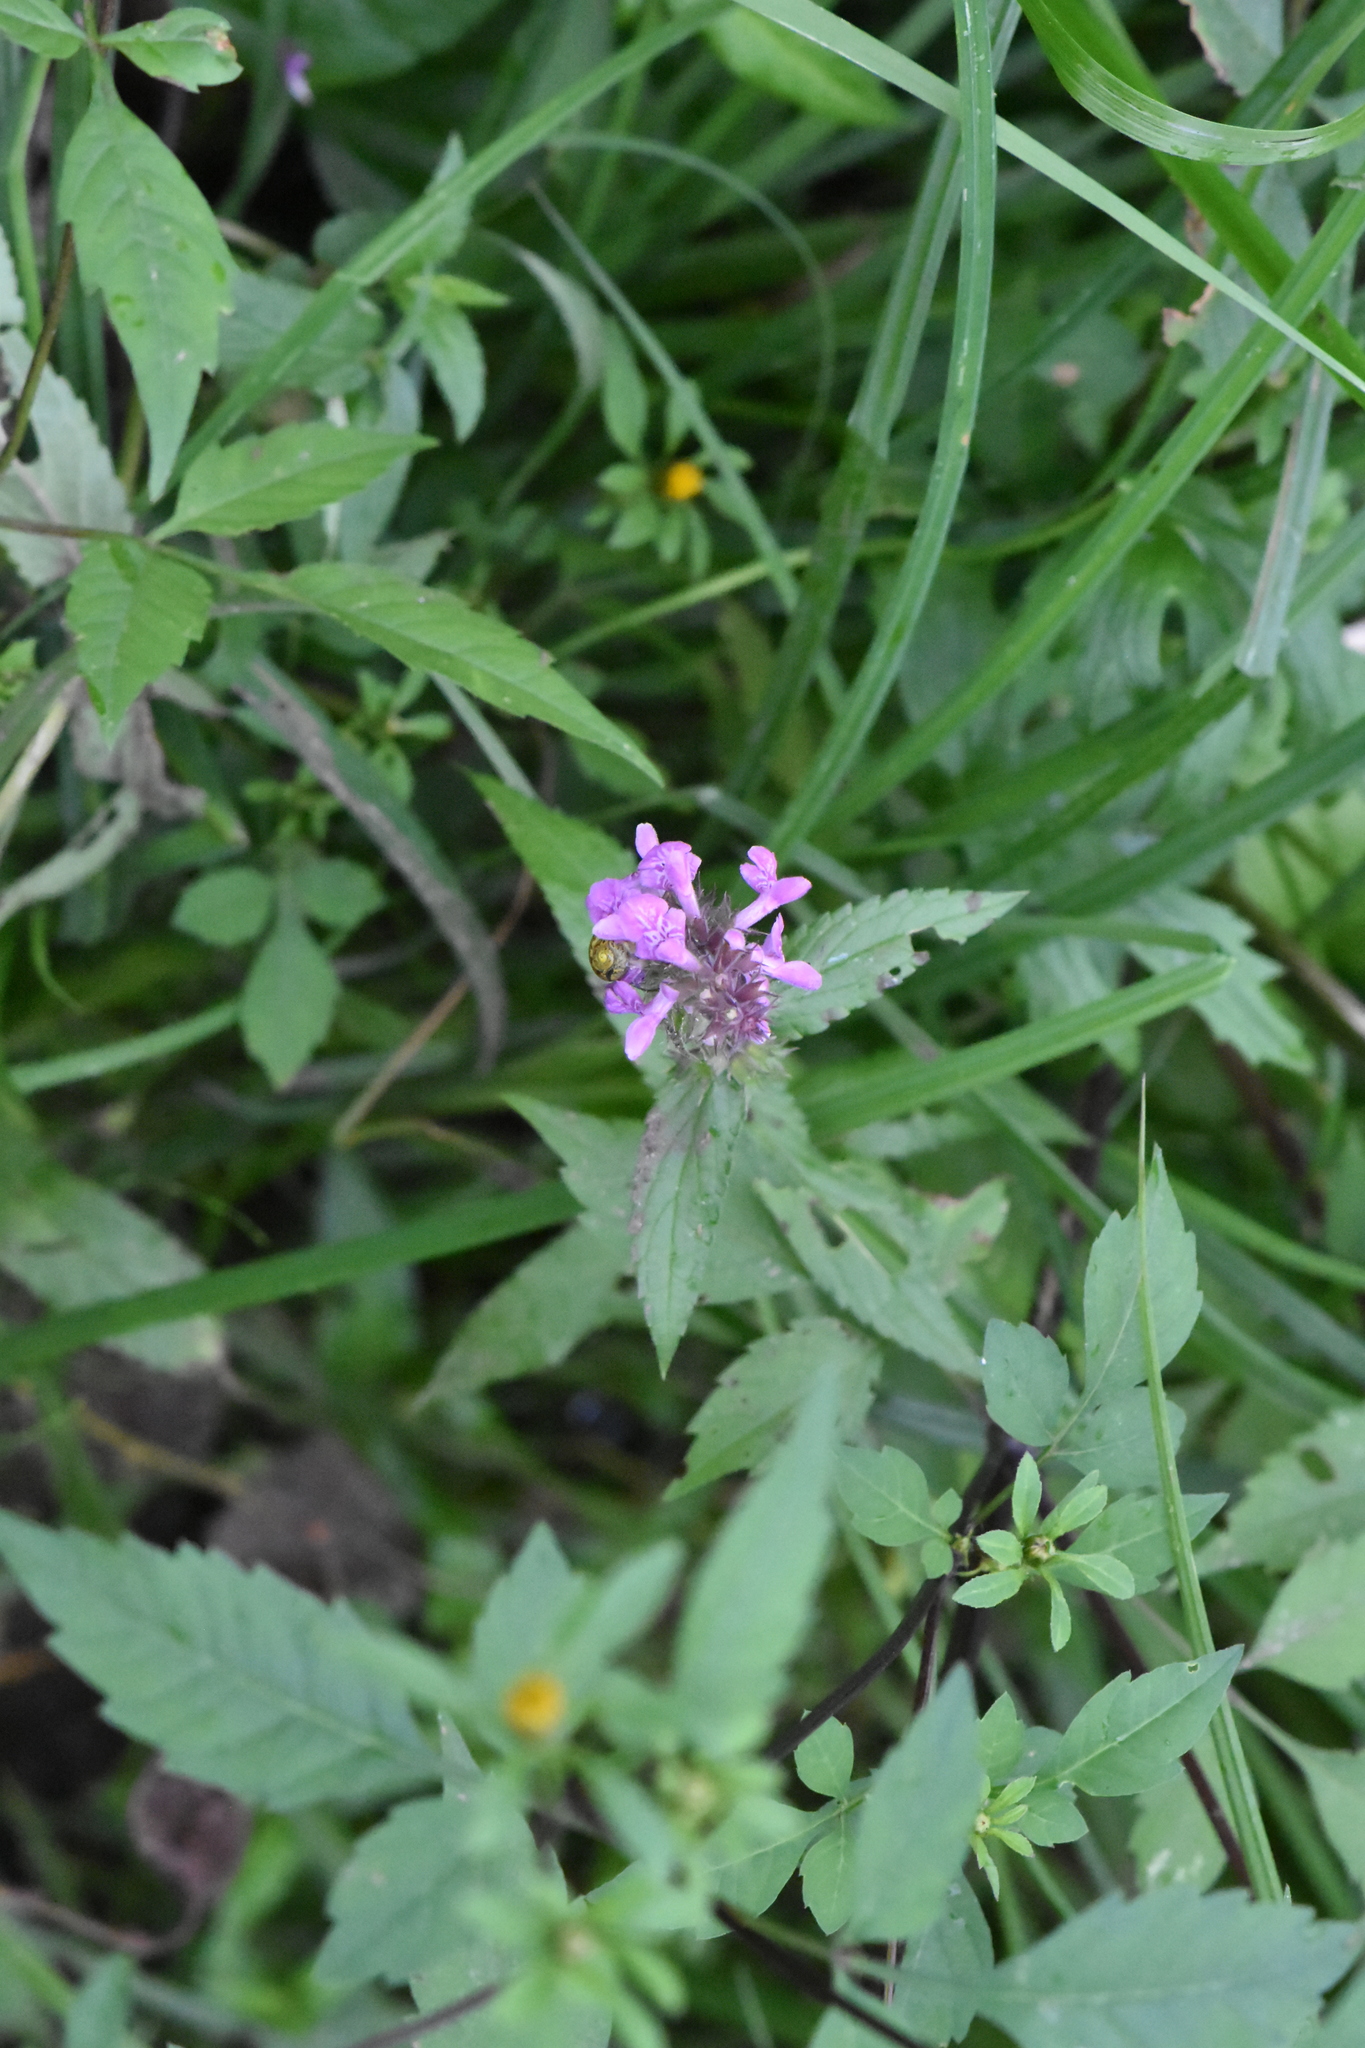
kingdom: Plantae
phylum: Tracheophyta
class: Magnoliopsida
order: Lamiales
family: Lamiaceae
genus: Stachys
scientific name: Stachys palustris
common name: Marsh woundwort
